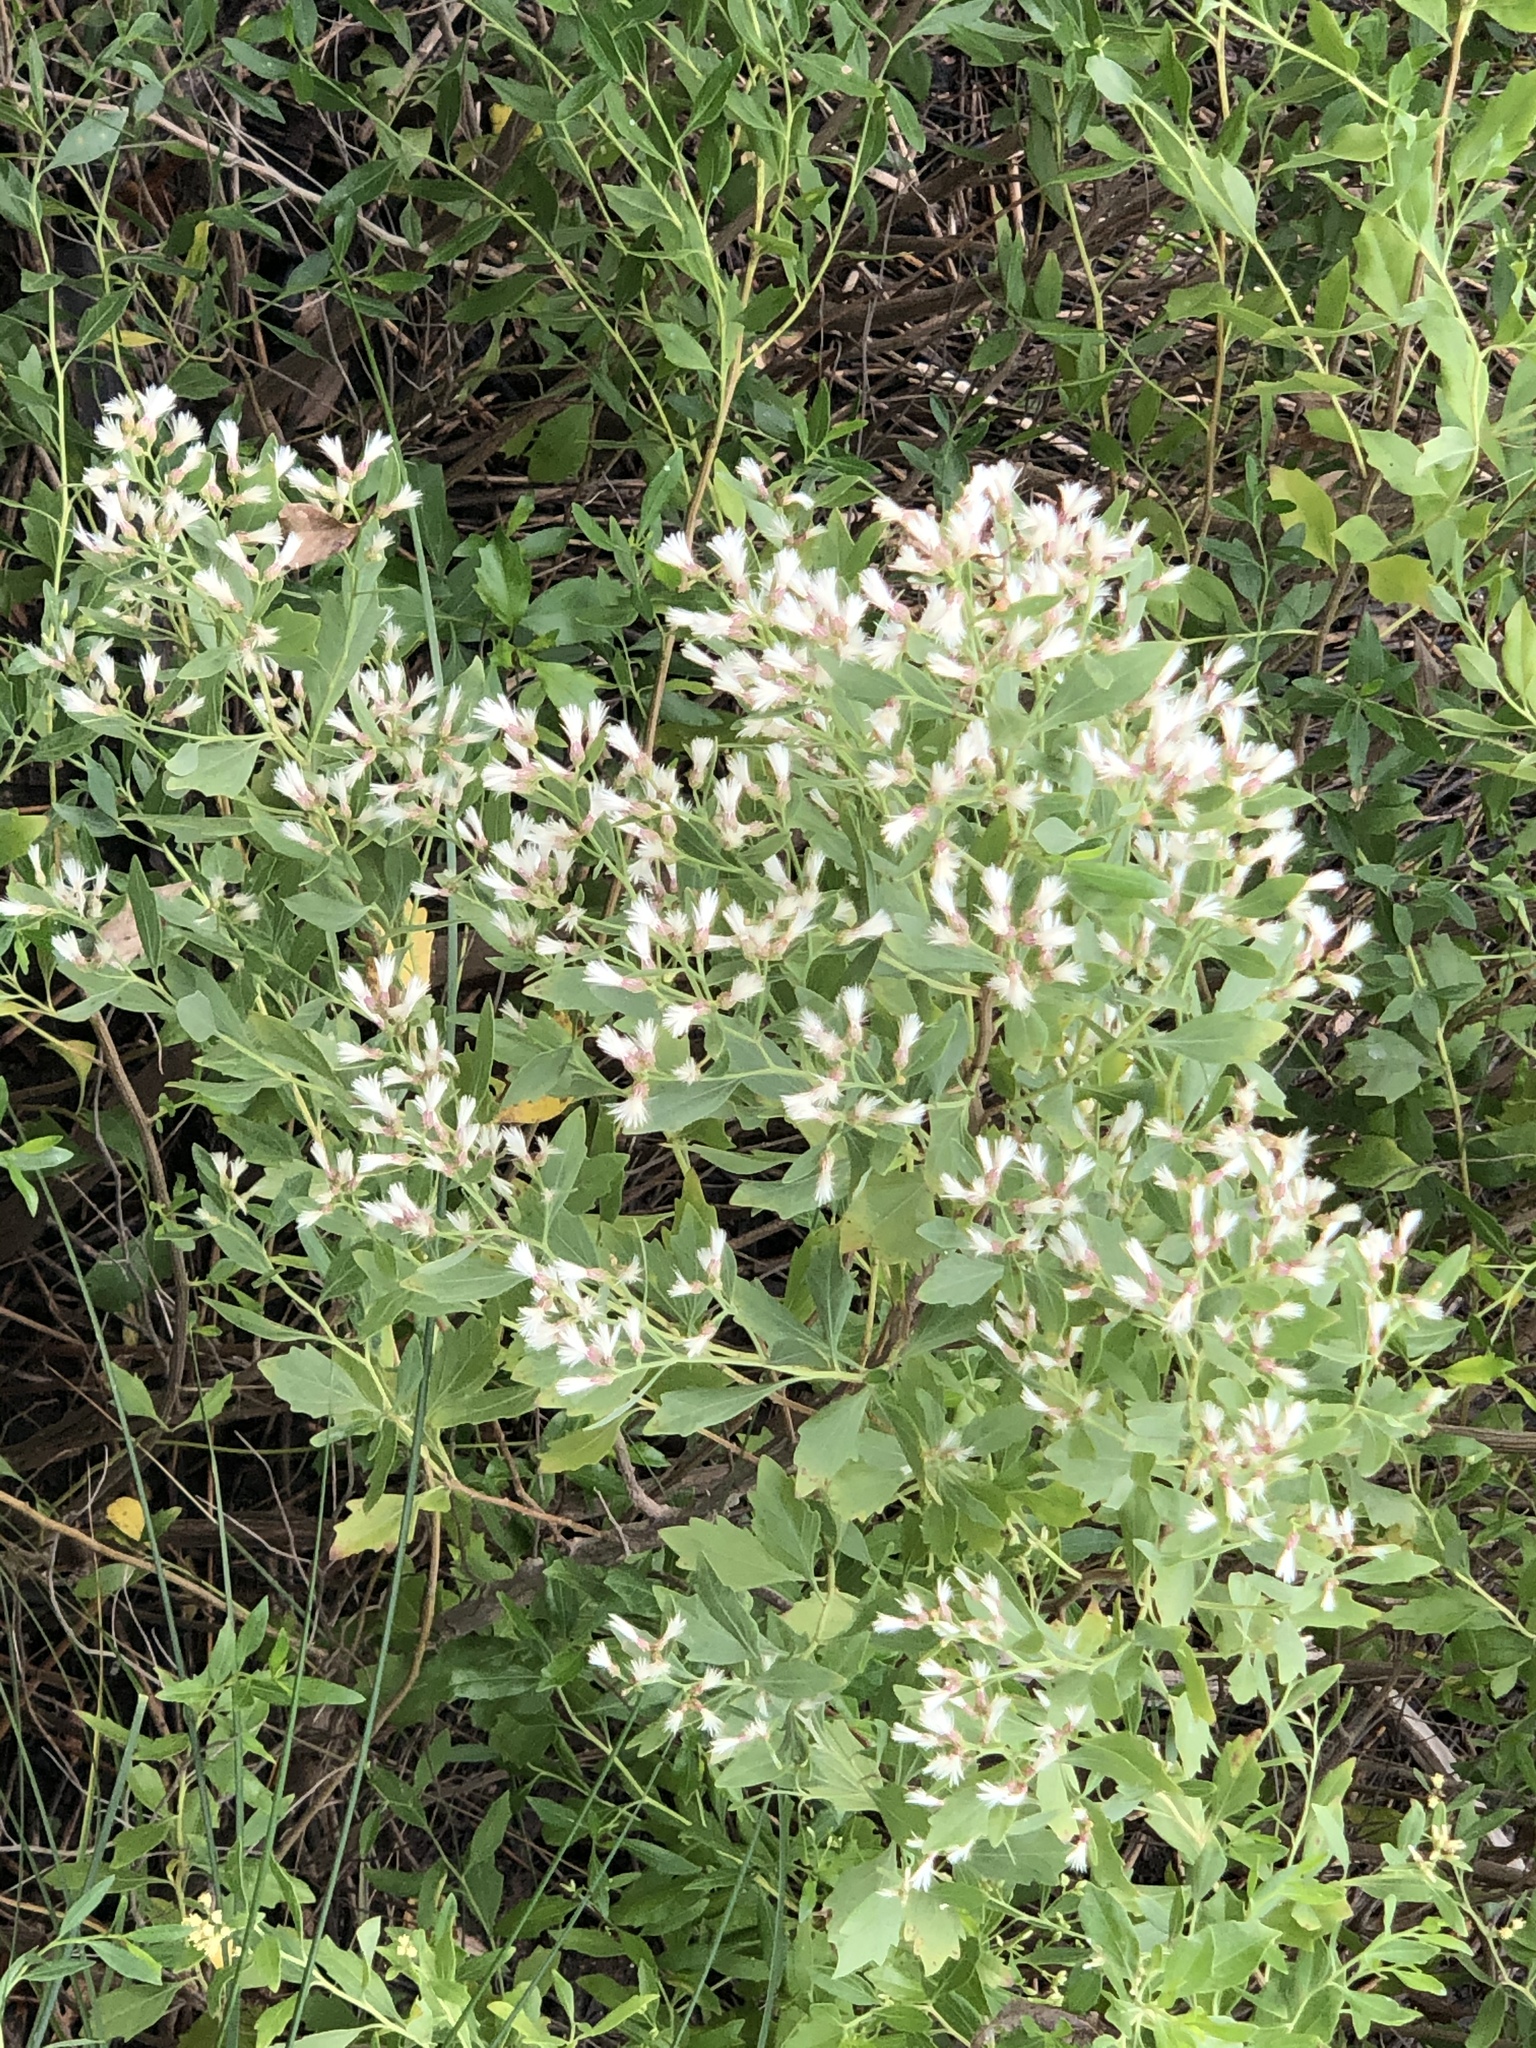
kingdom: Plantae
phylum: Tracheophyta
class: Magnoliopsida
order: Asterales
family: Asteraceae
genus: Baccharis
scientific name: Baccharis halimifolia
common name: Eastern baccharis
